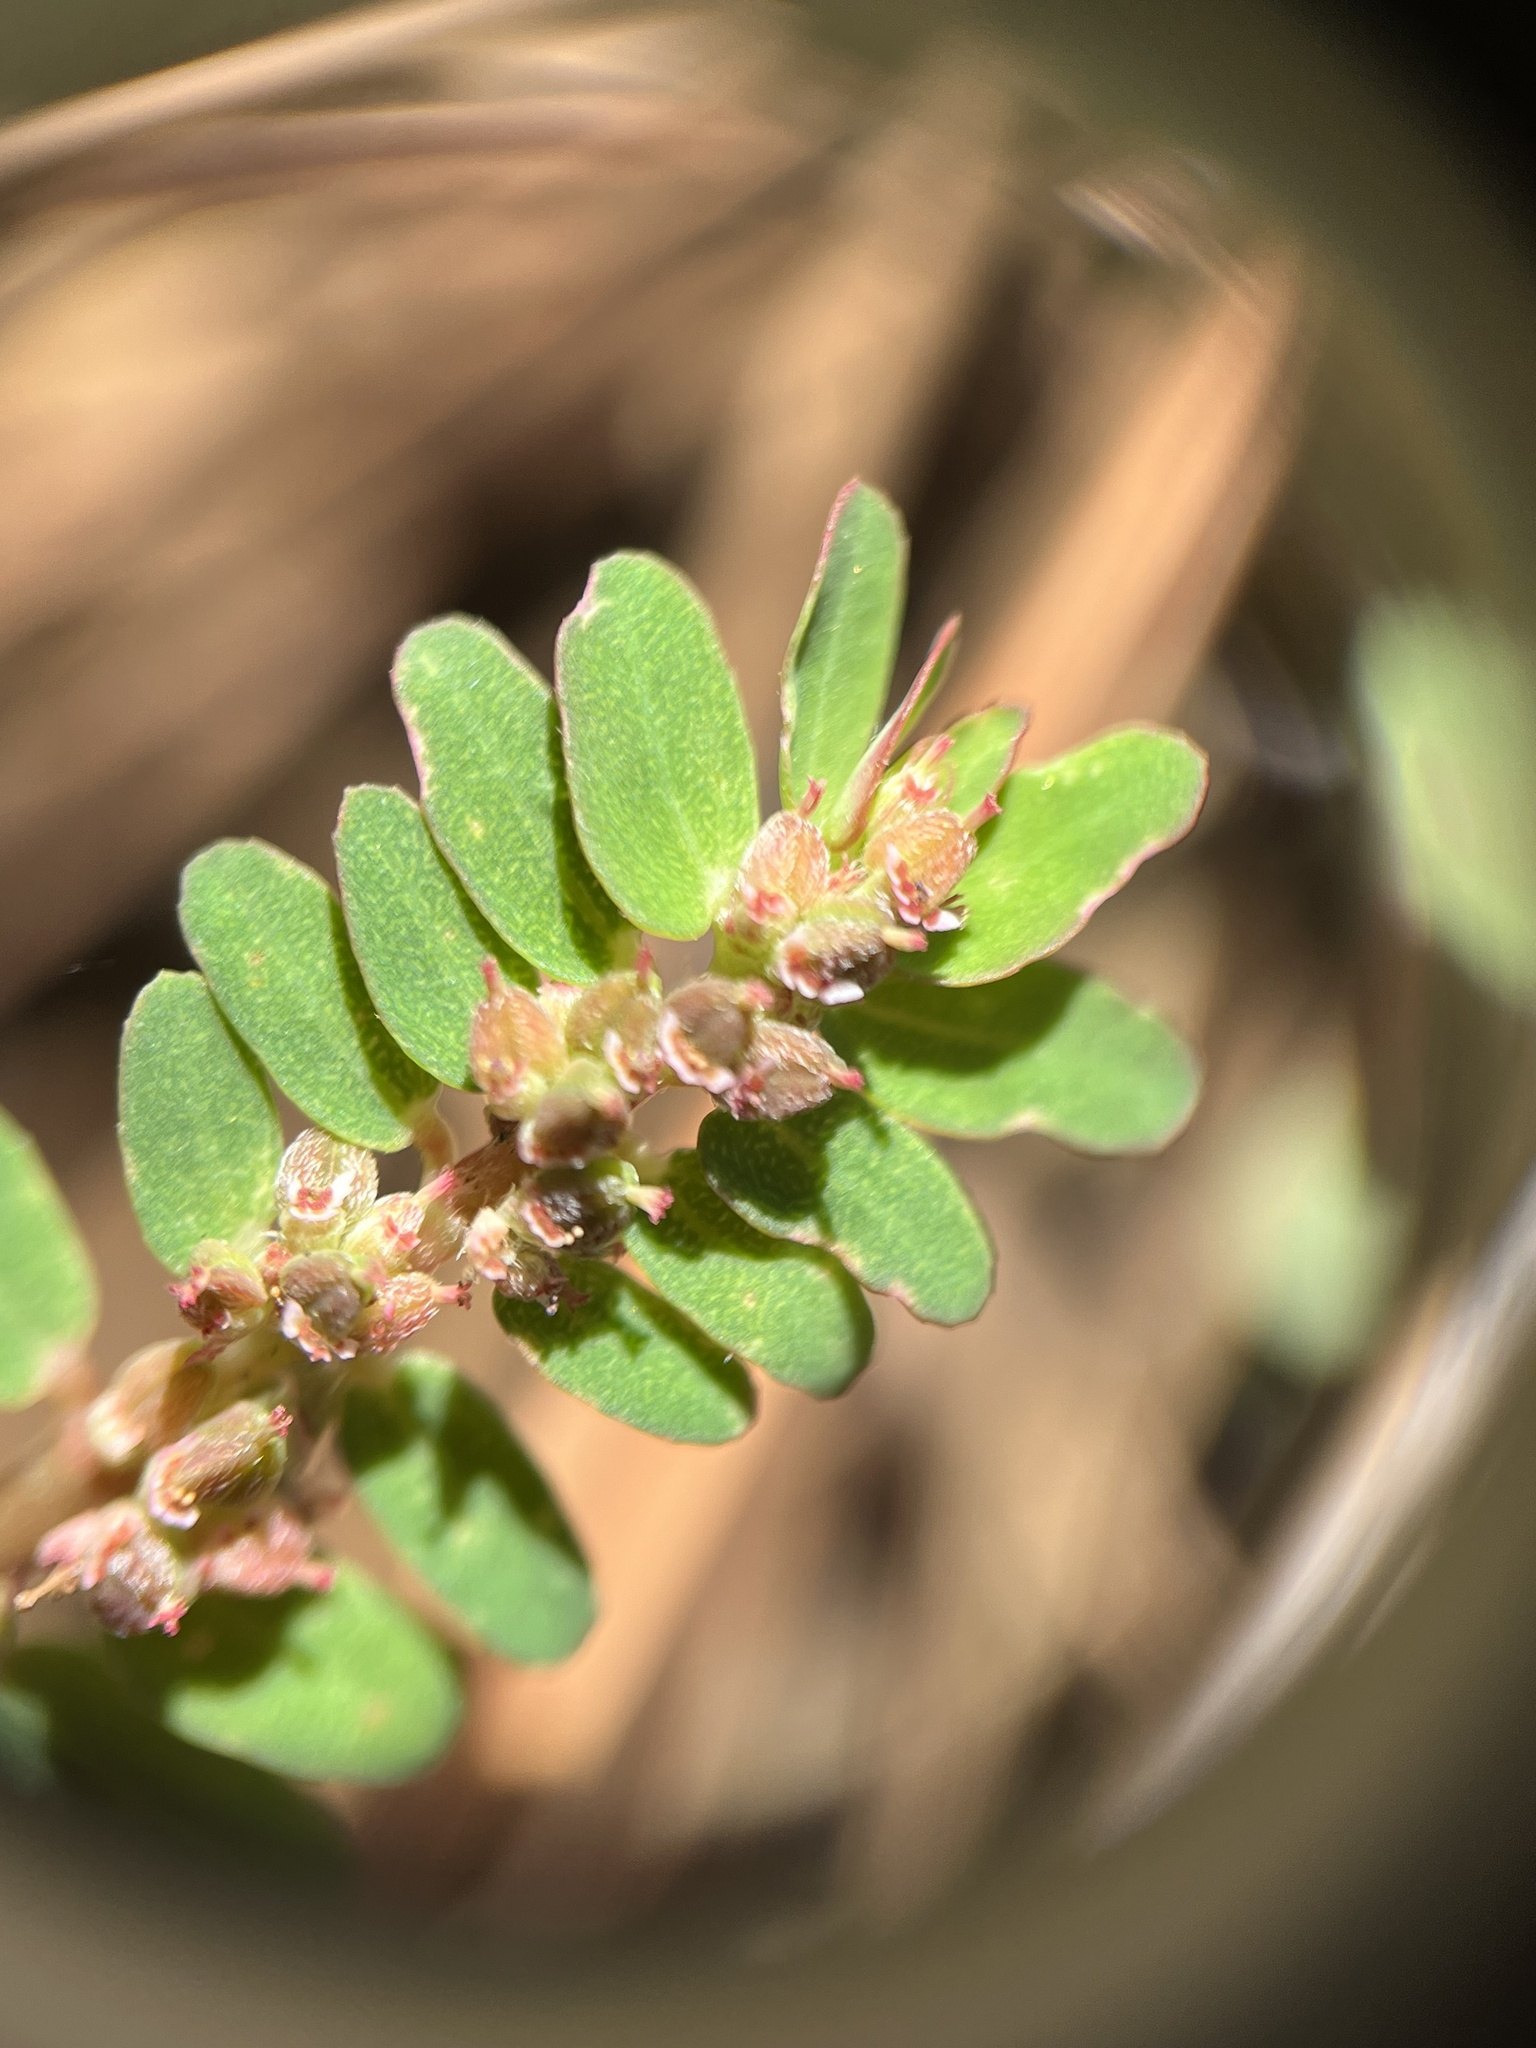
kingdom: Plantae
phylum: Tracheophyta
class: Magnoliopsida
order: Malpighiales
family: Euphorbiaceae
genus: Euphorbia
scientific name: Euphorbia thymifolia
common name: Gulf sandmat
